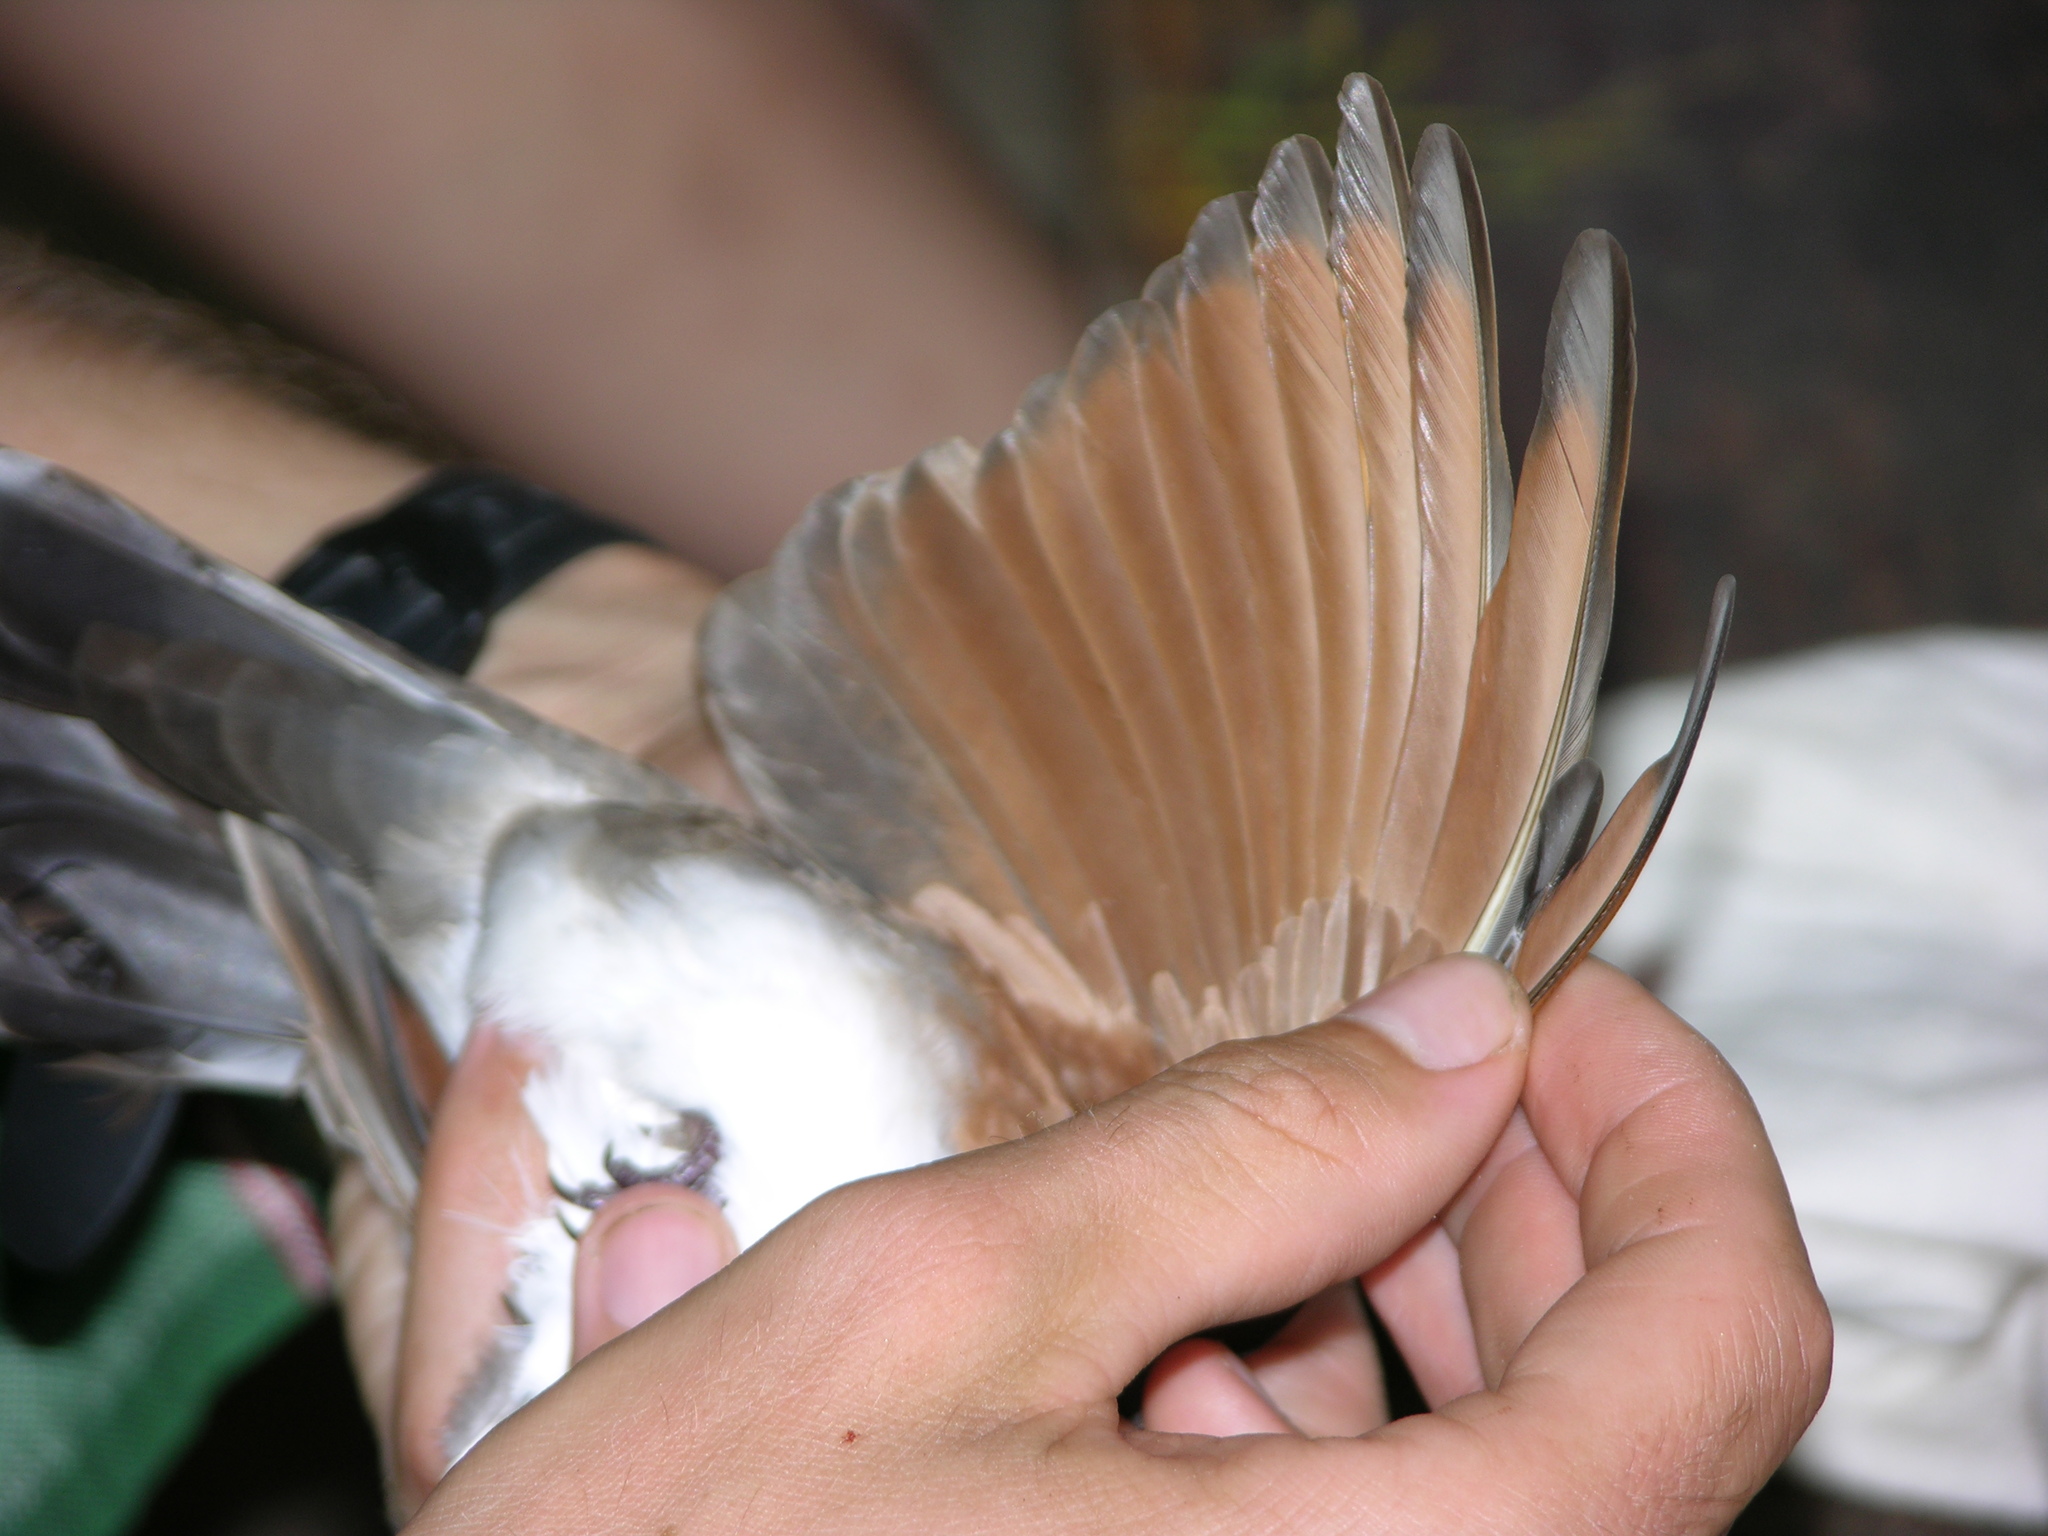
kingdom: Animalia
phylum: Chordata
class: Aves
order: Columbiformes
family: Columbidae
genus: Turtur
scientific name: Turtur tympanistria
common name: Tambourine dove
